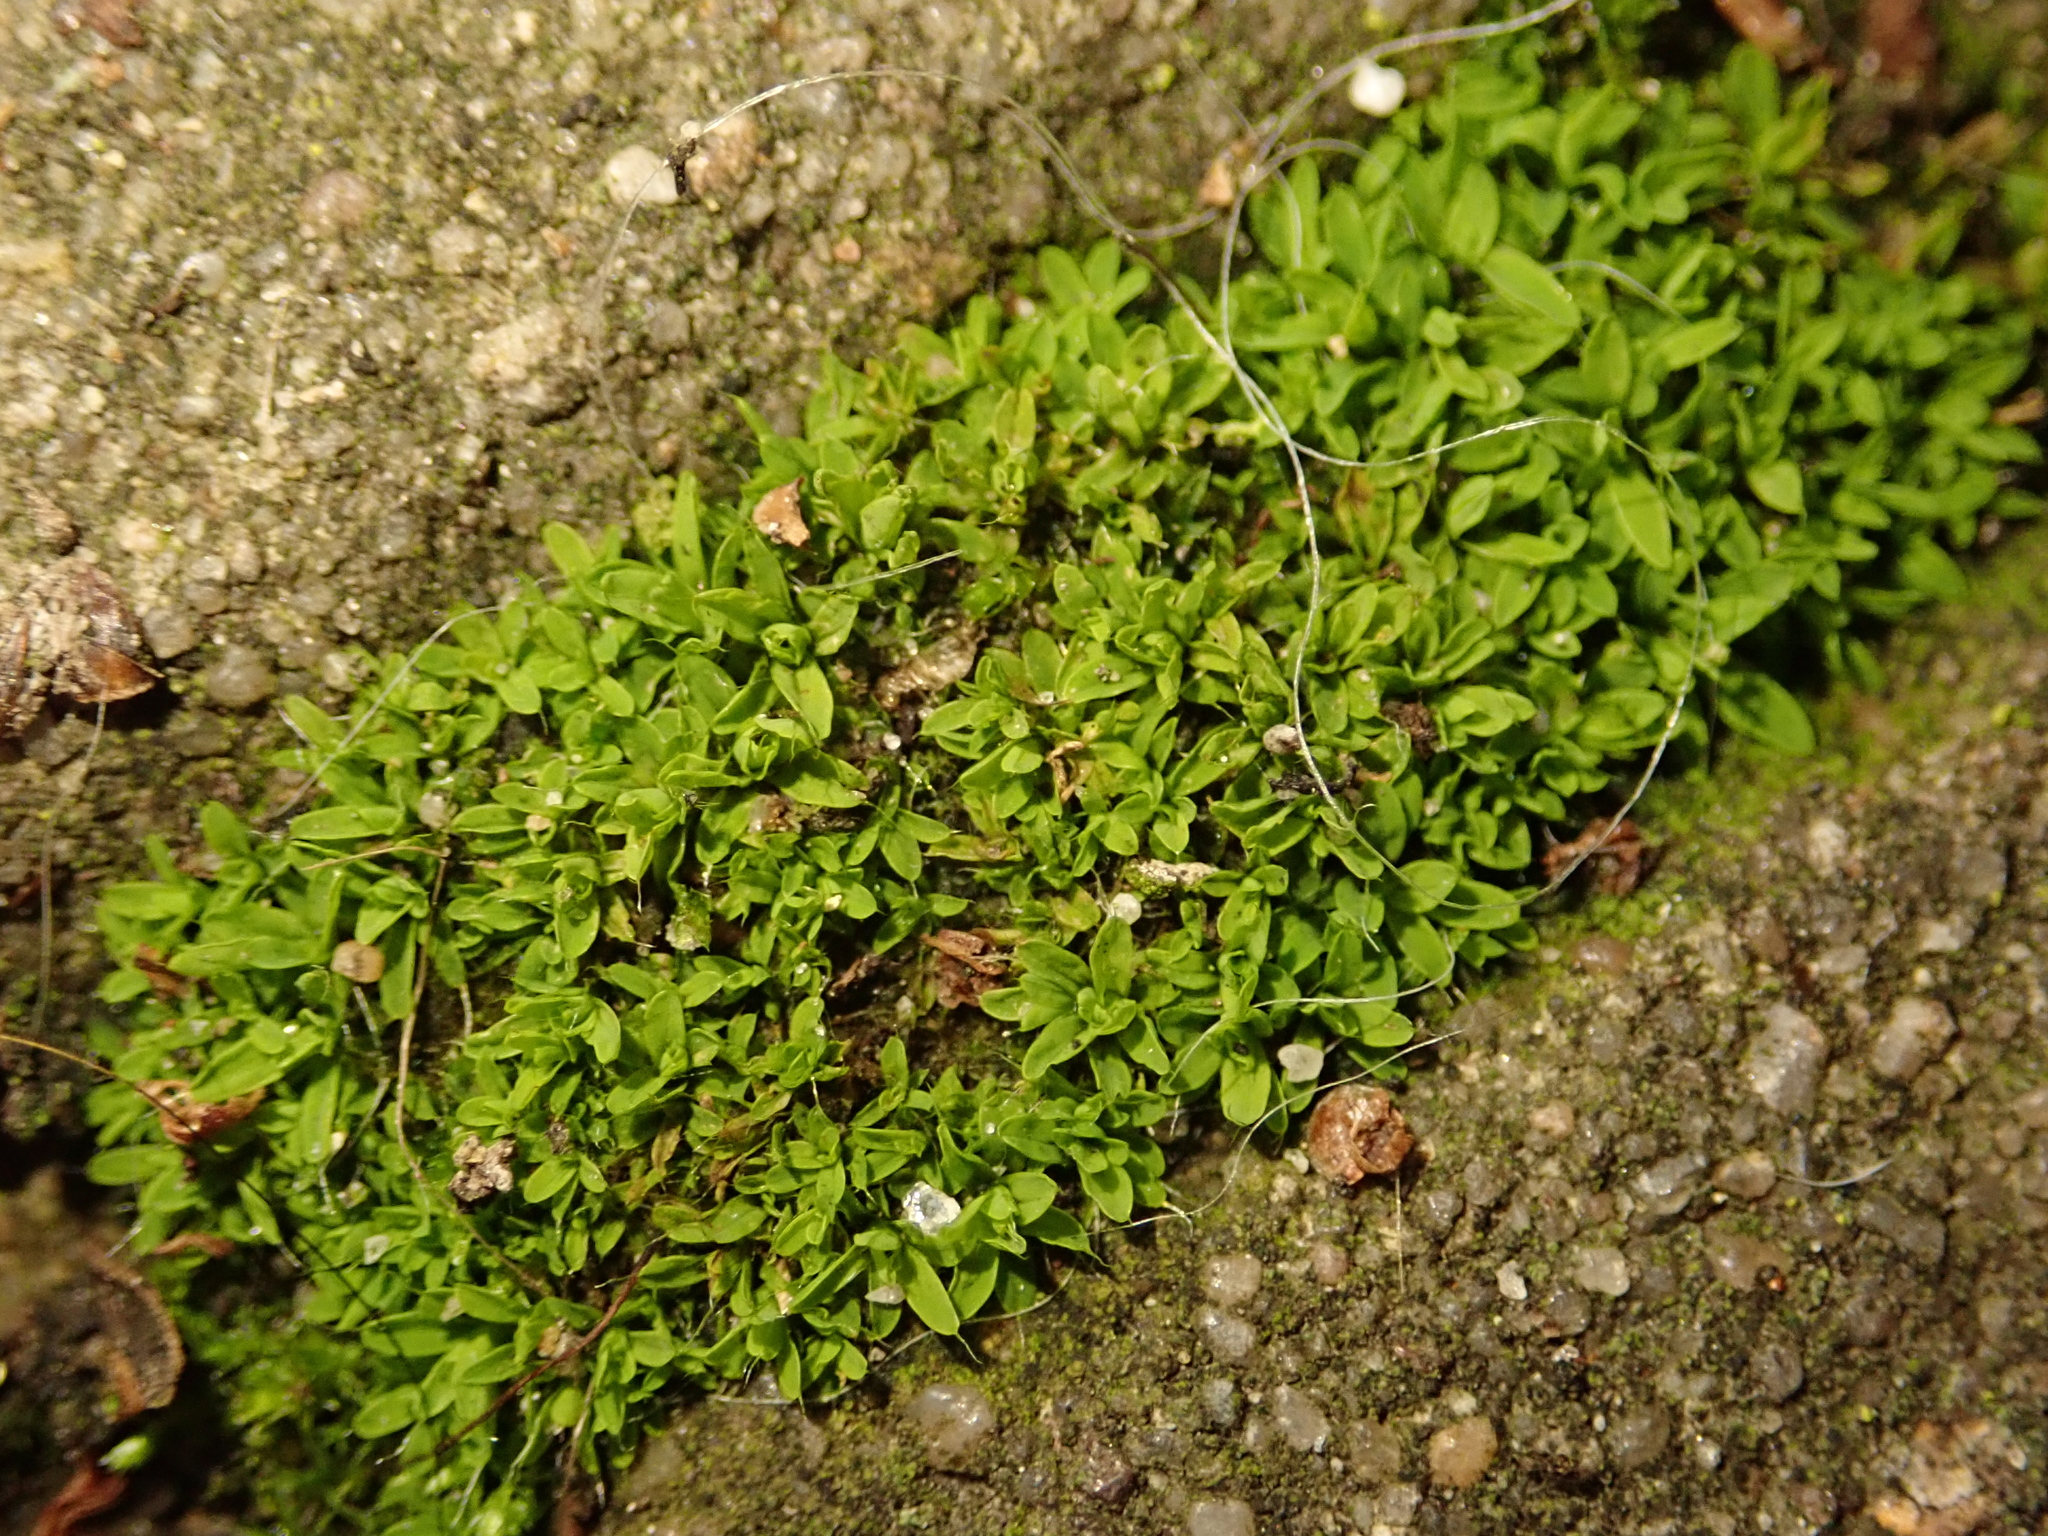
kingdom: Plantae
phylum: Bryophyta
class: Bryopsida
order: Pottiales
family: Pottiaceae
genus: Tortula
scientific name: Tortula muralis
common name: Wall screw-moss
